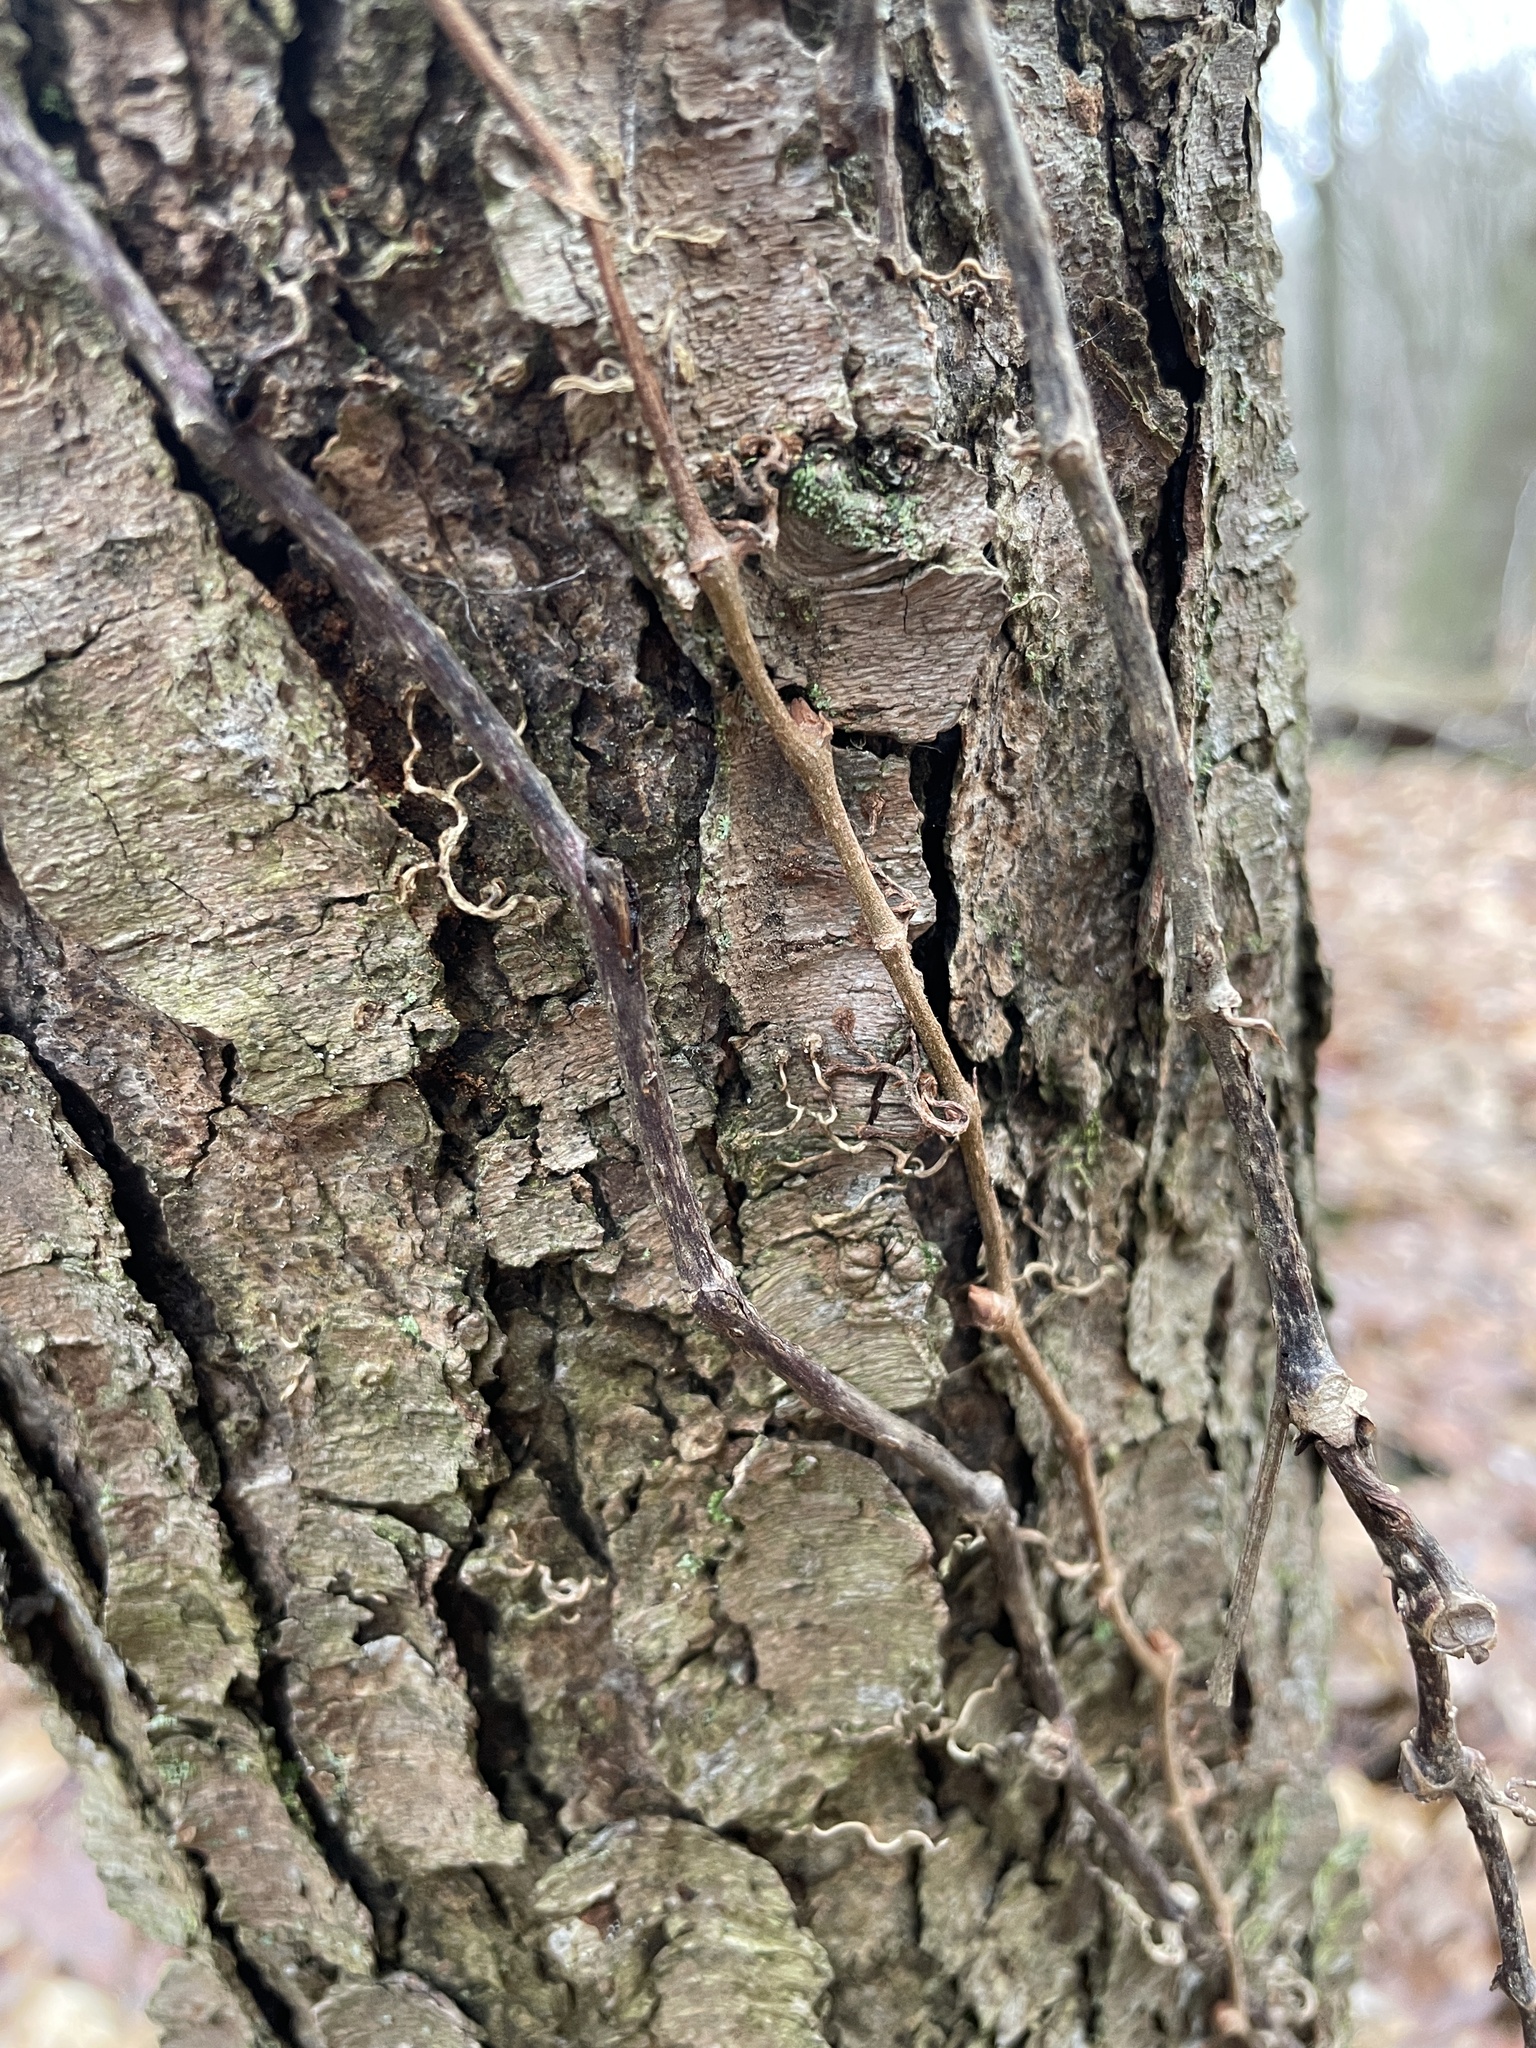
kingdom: Plantae
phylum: Tracheophyta
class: Magnoliopsida
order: Vitales
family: Vitaceae
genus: Parthenocissus
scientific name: Parthenocissus quinquefolia
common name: Virginia-creeper
